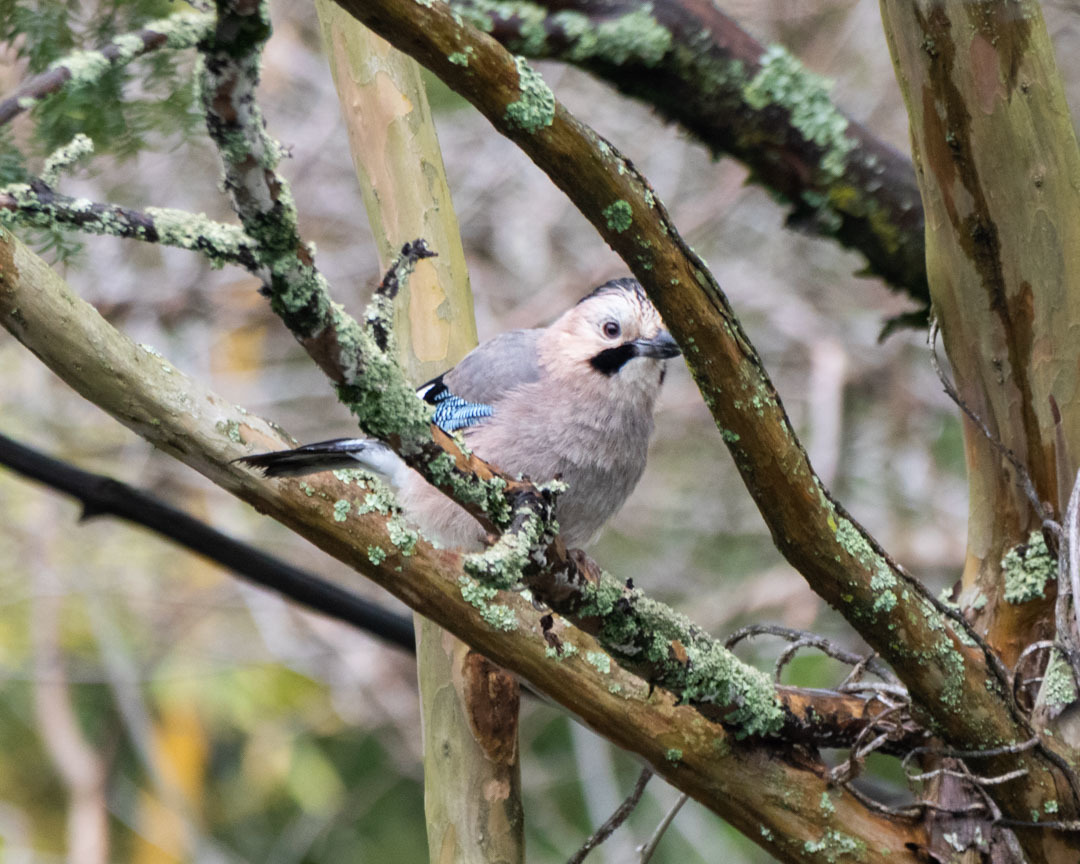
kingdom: Animalia
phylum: Chordata
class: Aves
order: Passeriformes
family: Corvidae
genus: Garrulus
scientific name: Garrulus glandarius
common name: Eurasian jay
